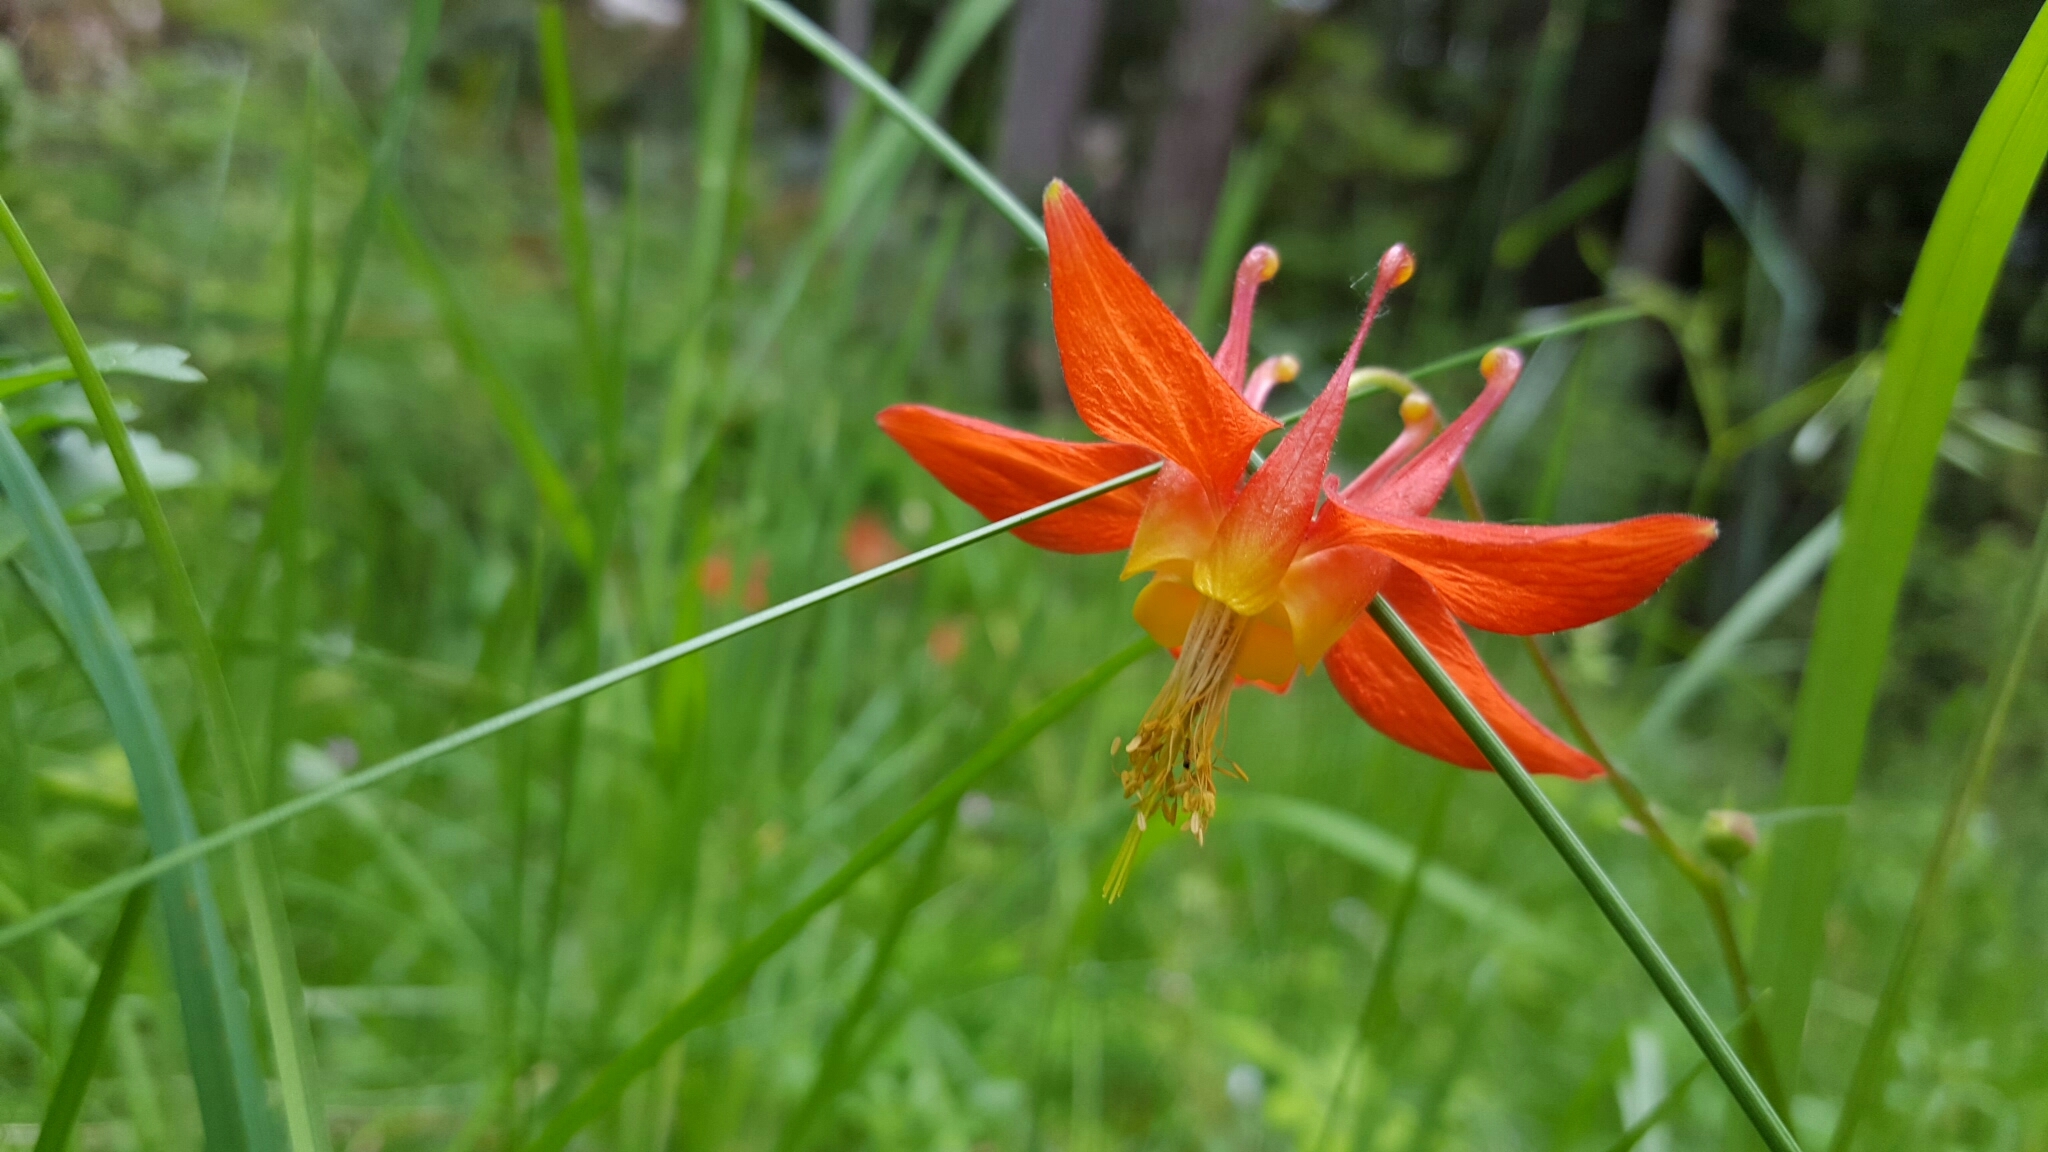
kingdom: Plantae
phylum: Tracheophyta
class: Magnoliopsida
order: Ranunculales
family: Ranunculaceae
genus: Aquilegia
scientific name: Aquilegia formosa
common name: Sitka columbine
